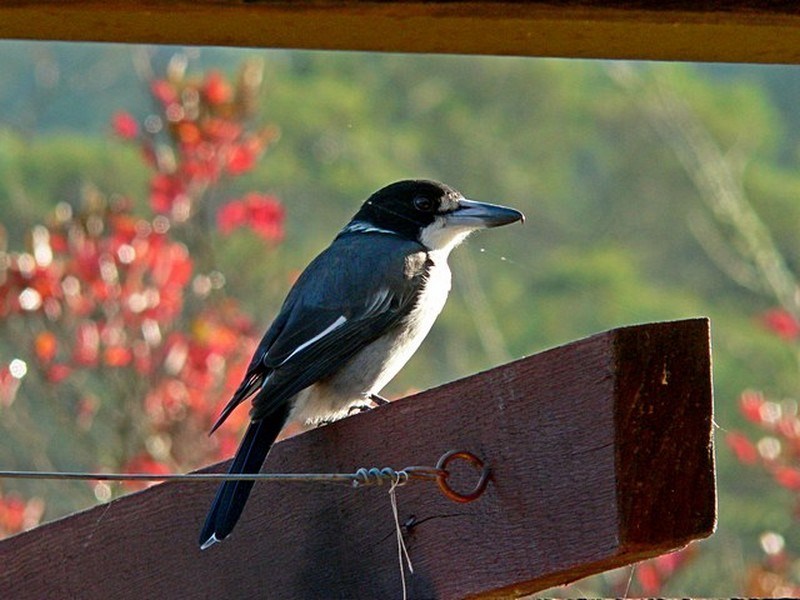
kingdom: Animalia
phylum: Chordata
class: Aves
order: Passeriformes
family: Cracticidae
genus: Cracticus
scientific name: Cracticus torquatus
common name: Grey butcherbird
